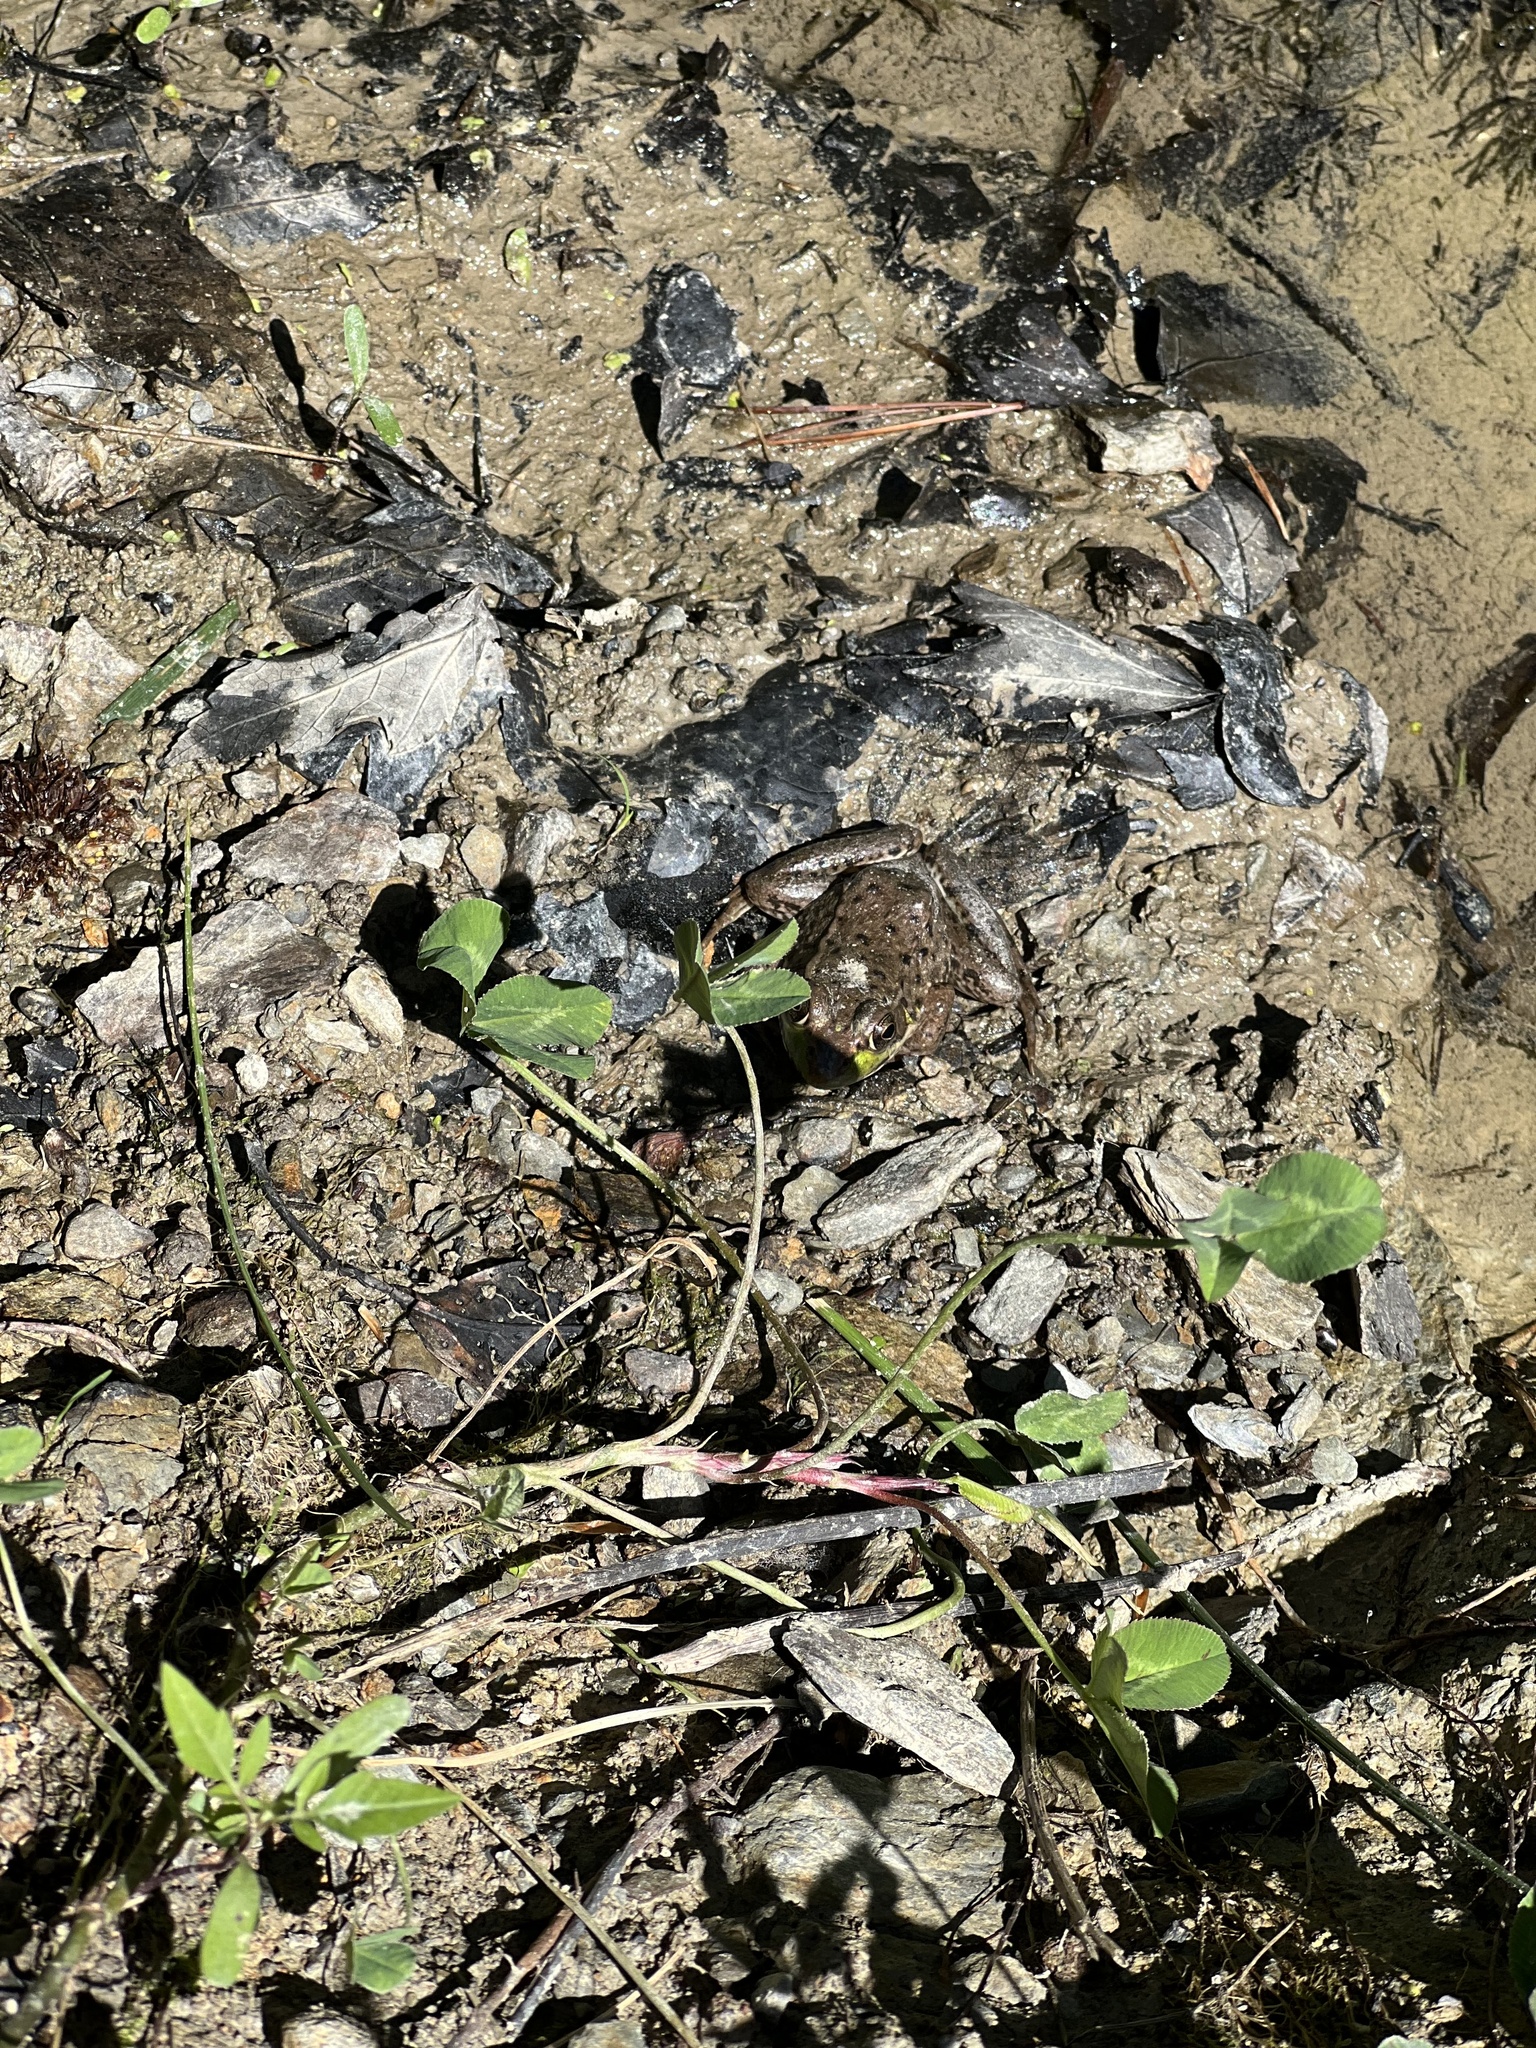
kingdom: Animalia
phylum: Chordata
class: Amphibia
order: Anura
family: Ranidae
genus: Lithobates
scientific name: Lithobates clamitans
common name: Green frog
